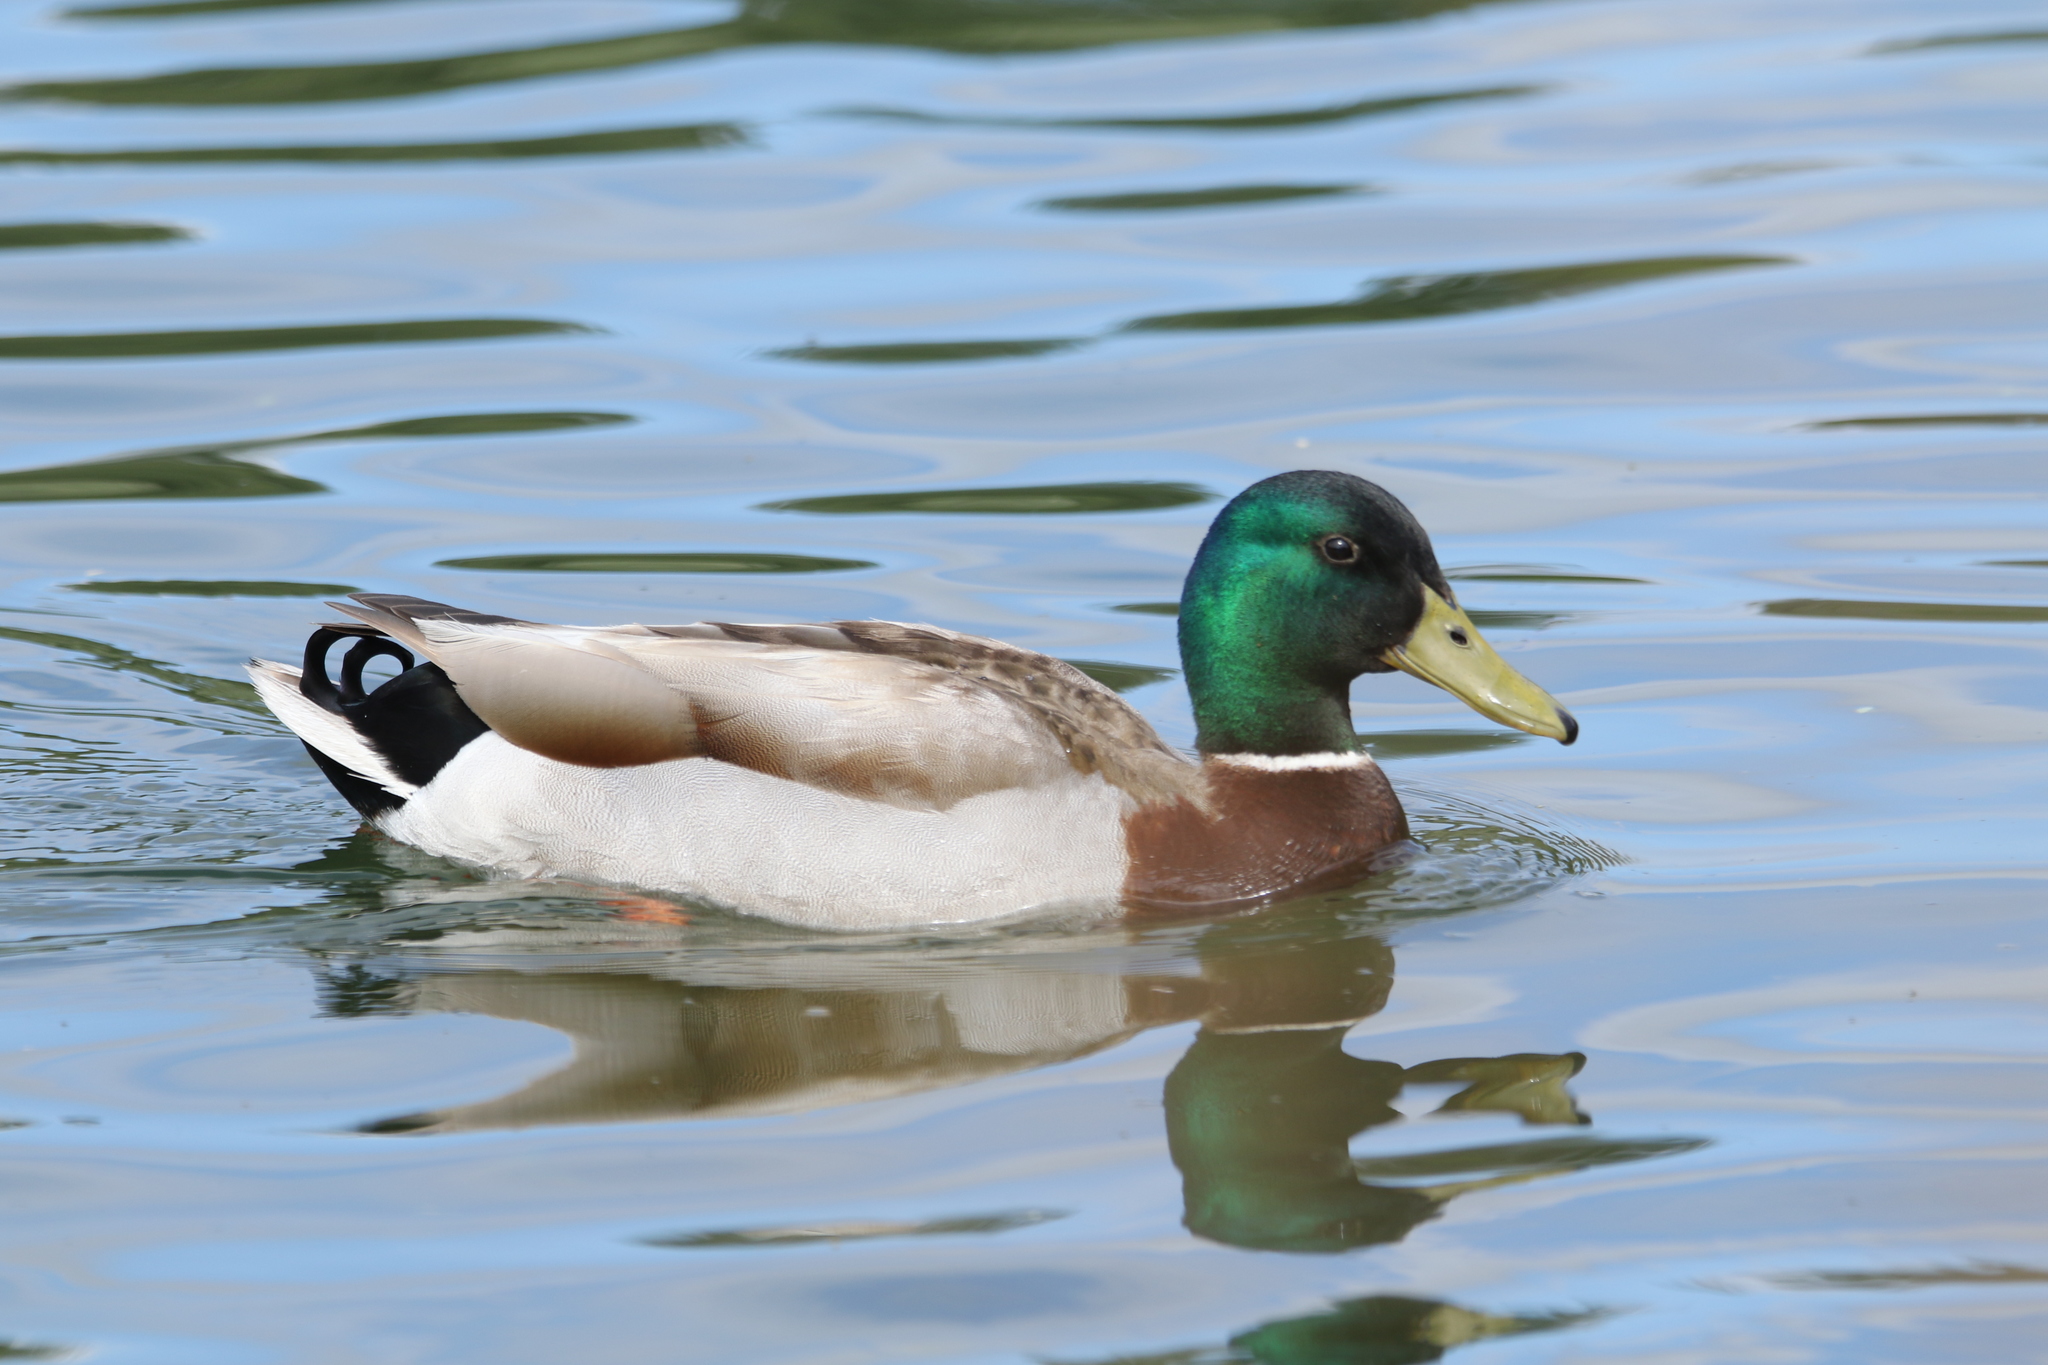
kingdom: Animalia
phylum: Chordata
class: Aves
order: Anseriformes
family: Anatidae
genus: Anas
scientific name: Anas platyrhynchos
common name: Mallard
